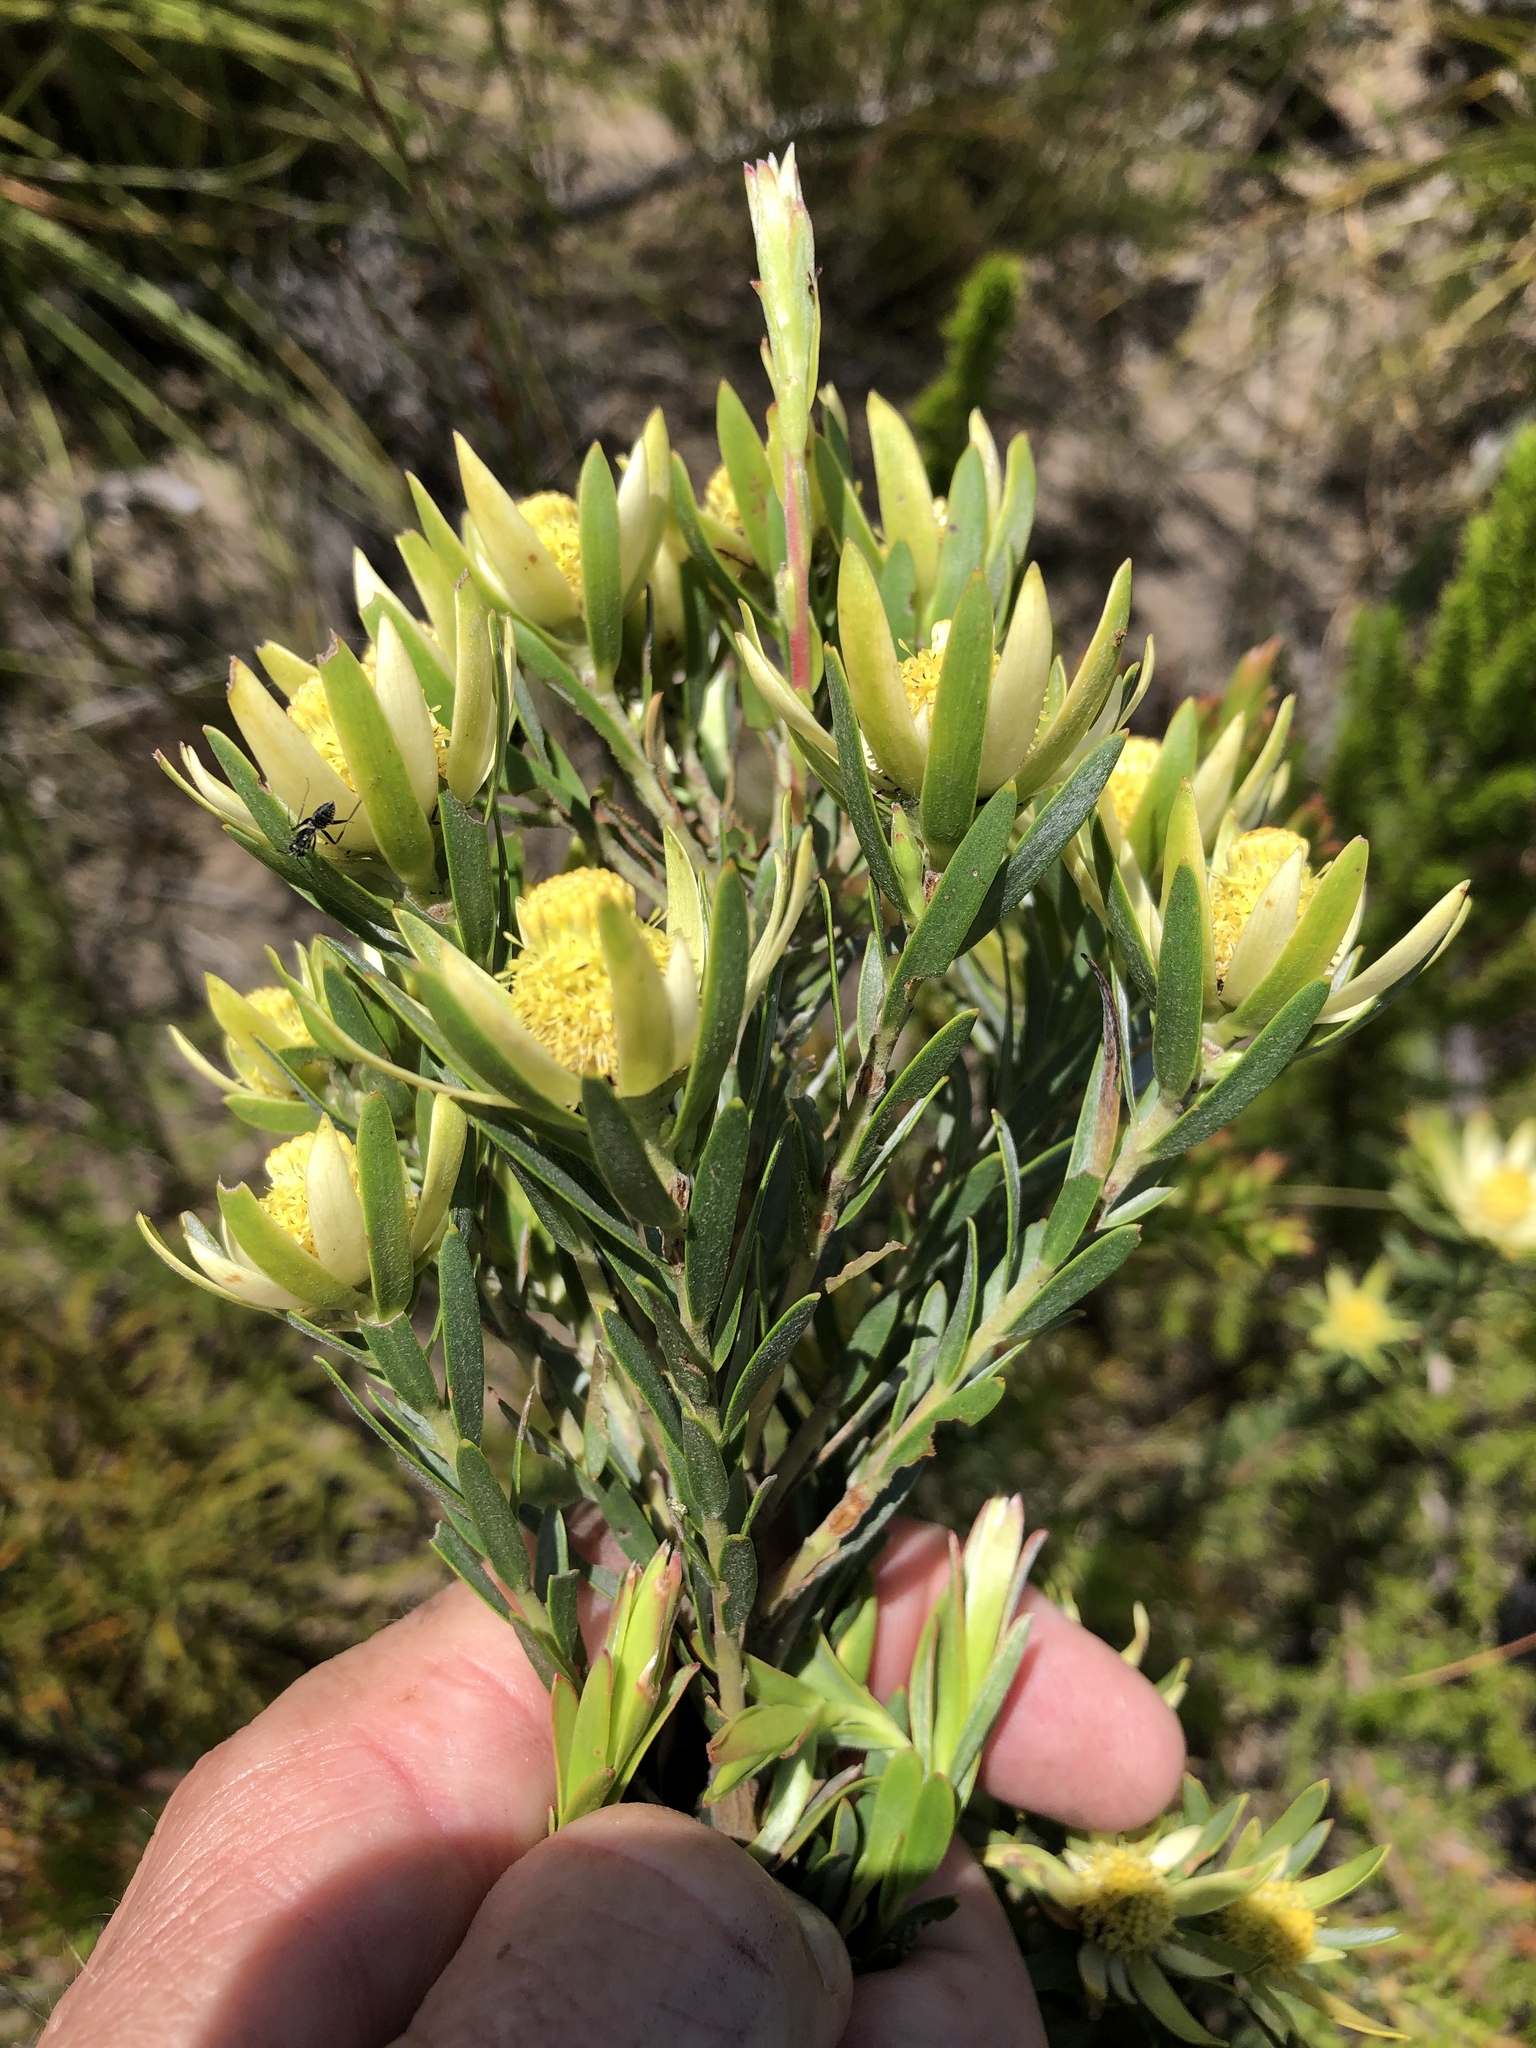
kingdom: Plantae
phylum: Tracheophyta
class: Magnoliopsida
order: Proteales
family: Proteaceae
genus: Leucadendron
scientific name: Leucadendron uliginosum
